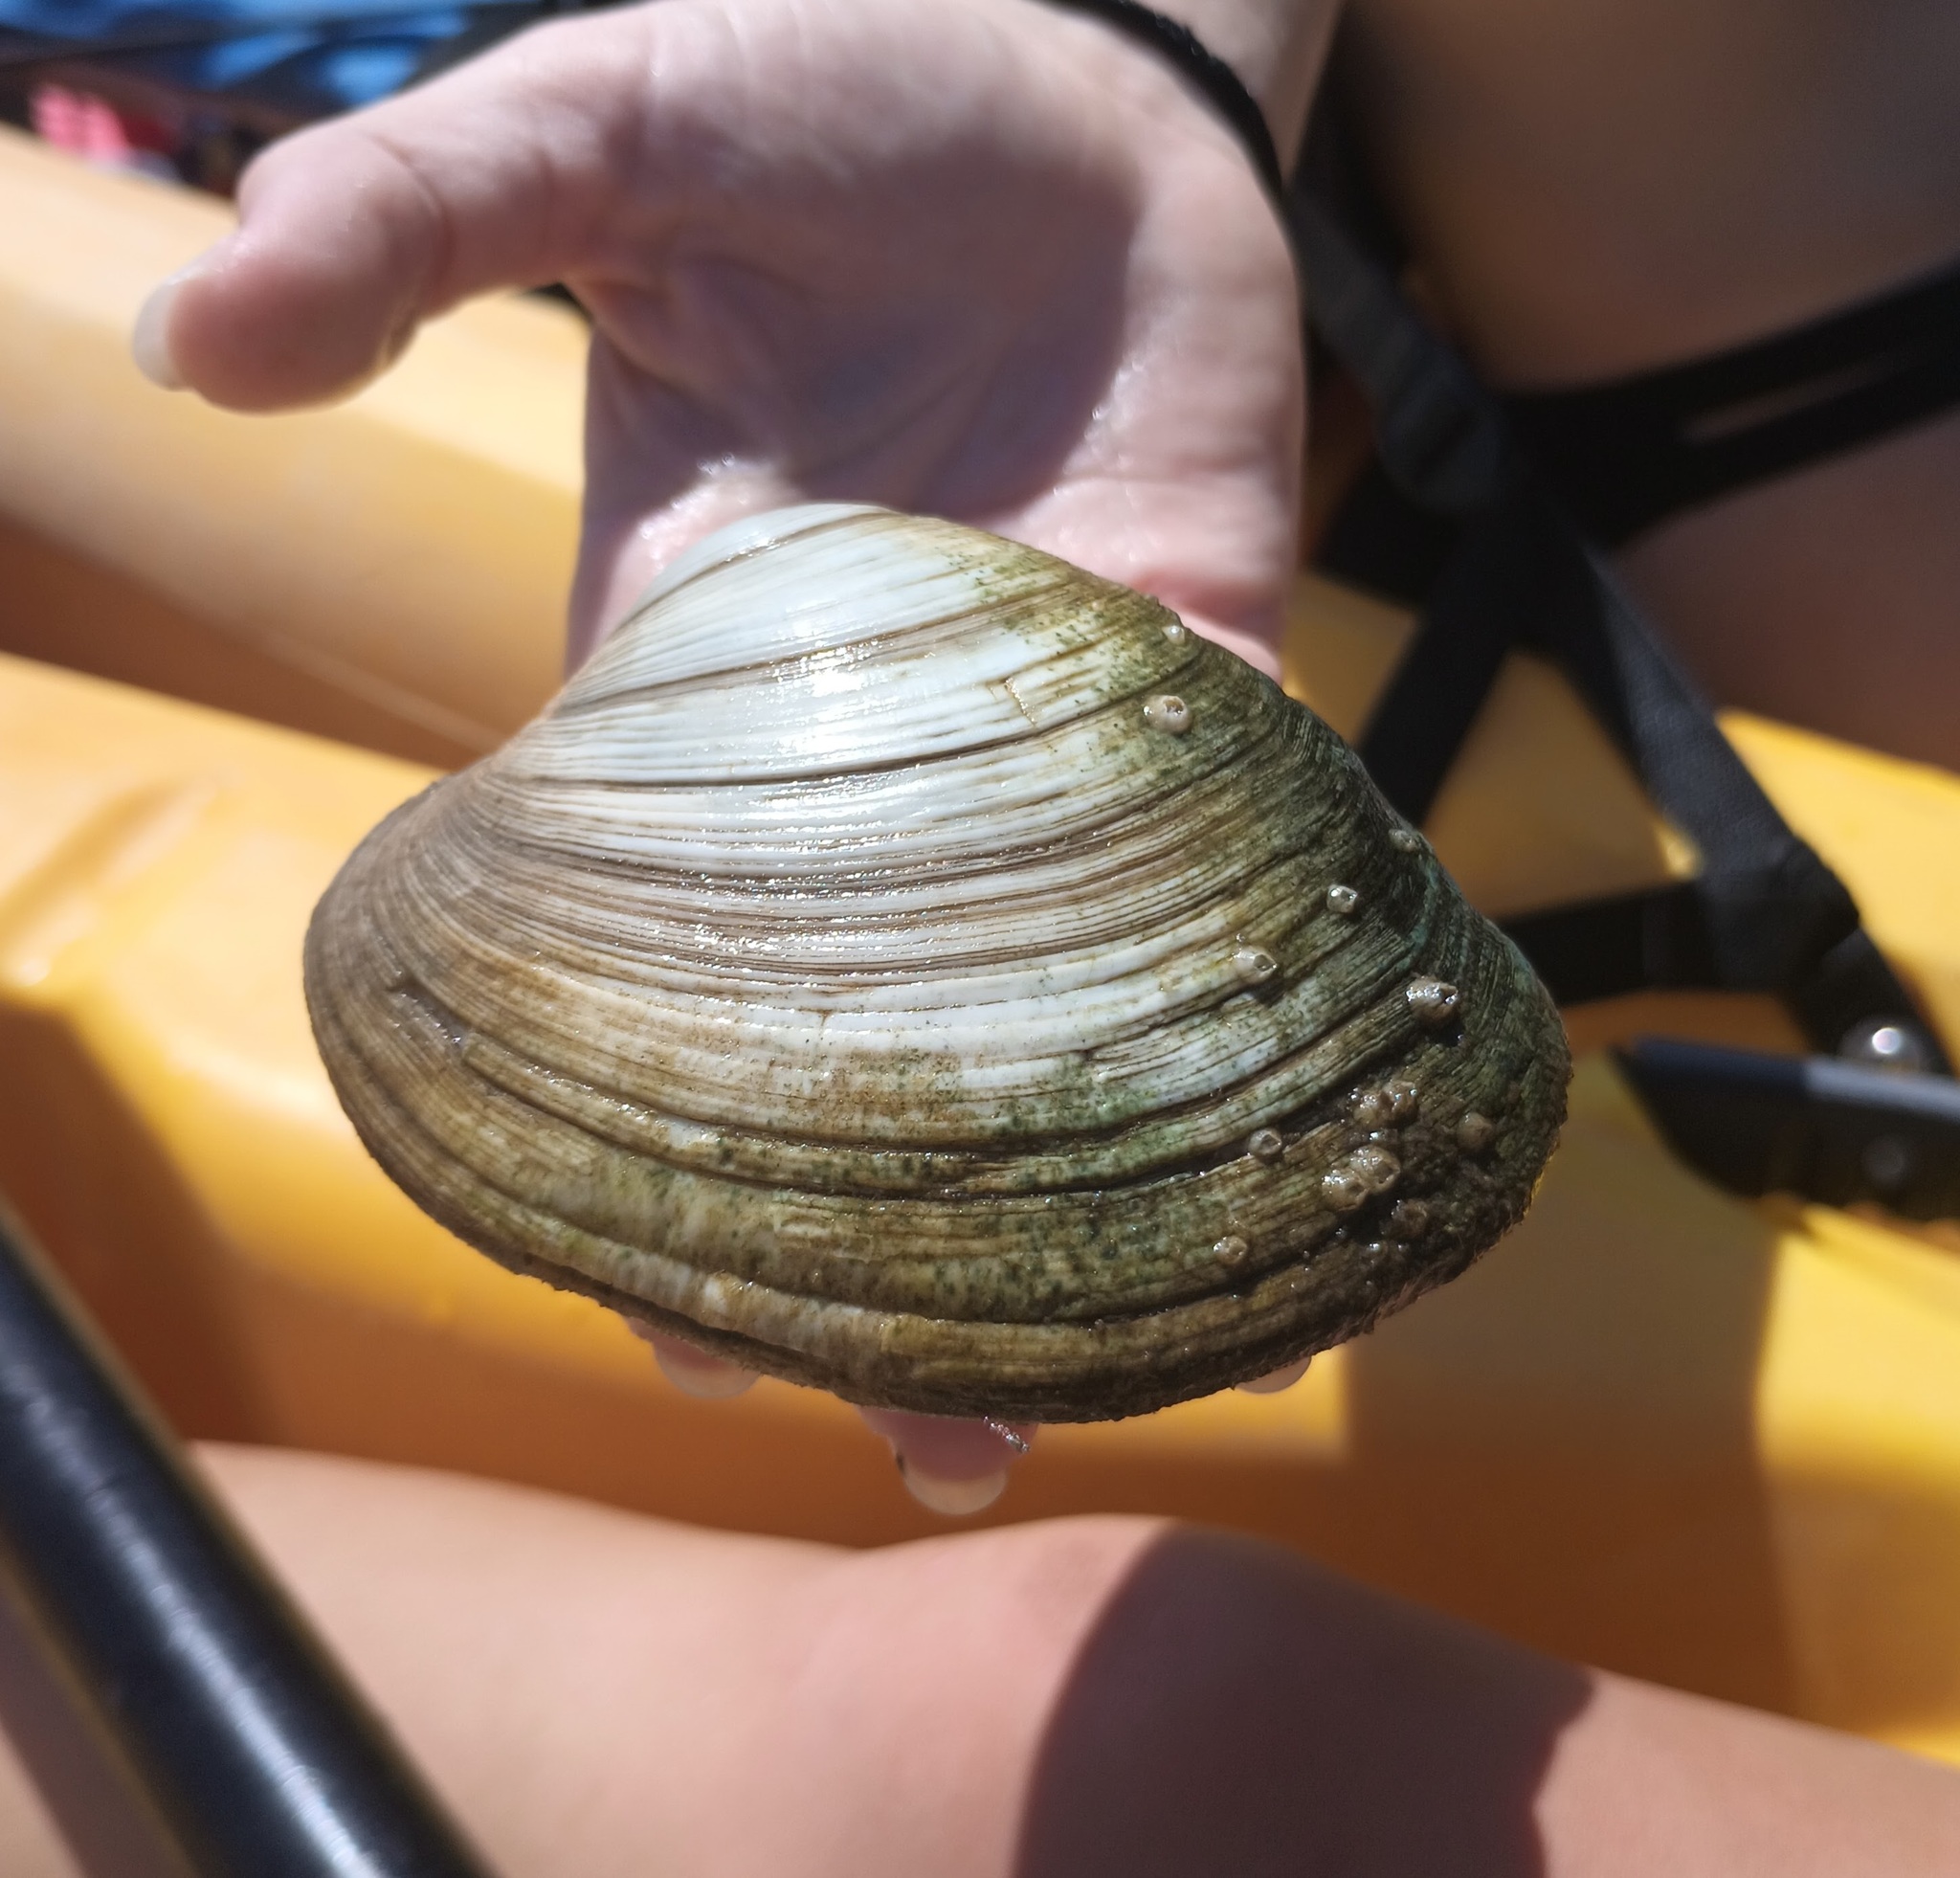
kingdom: Animalia
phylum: Mollusca
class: Bivalvia
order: Venerida
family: Veneridae
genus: Mercenaria
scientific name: Mercenaria mercenaria
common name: American hard-shelled clam
